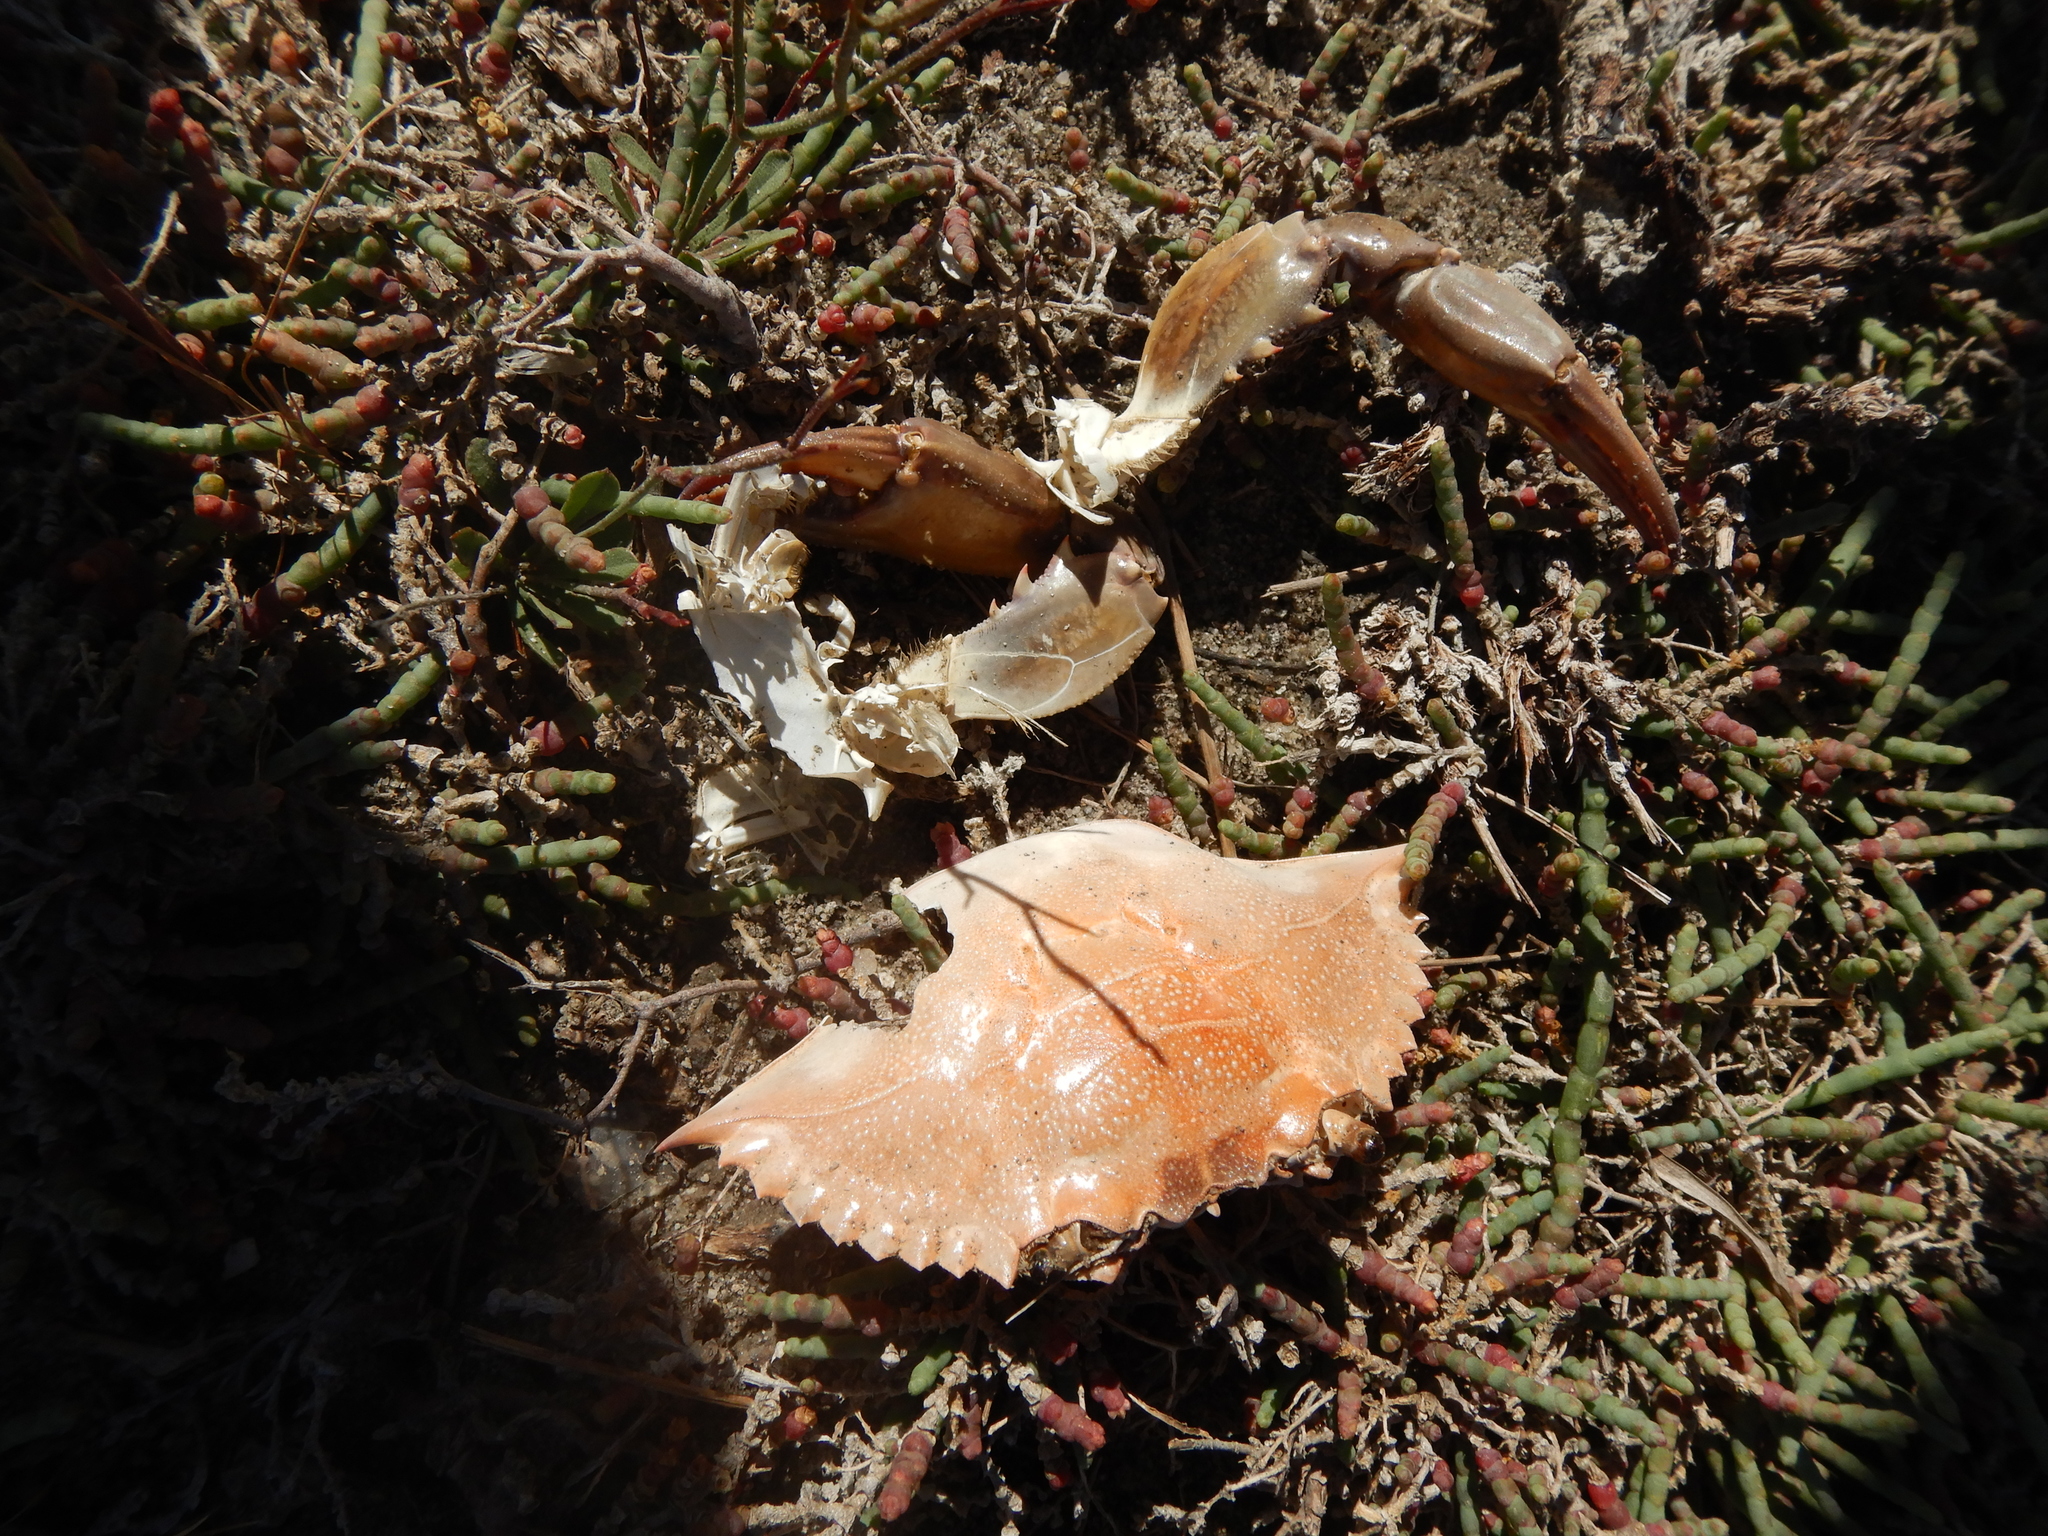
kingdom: Animalia
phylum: Arthropoda
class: Malacostraca
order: Decapoda
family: Portunidae
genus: Callinectes
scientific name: Callinectes sapidus
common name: Blue crab
